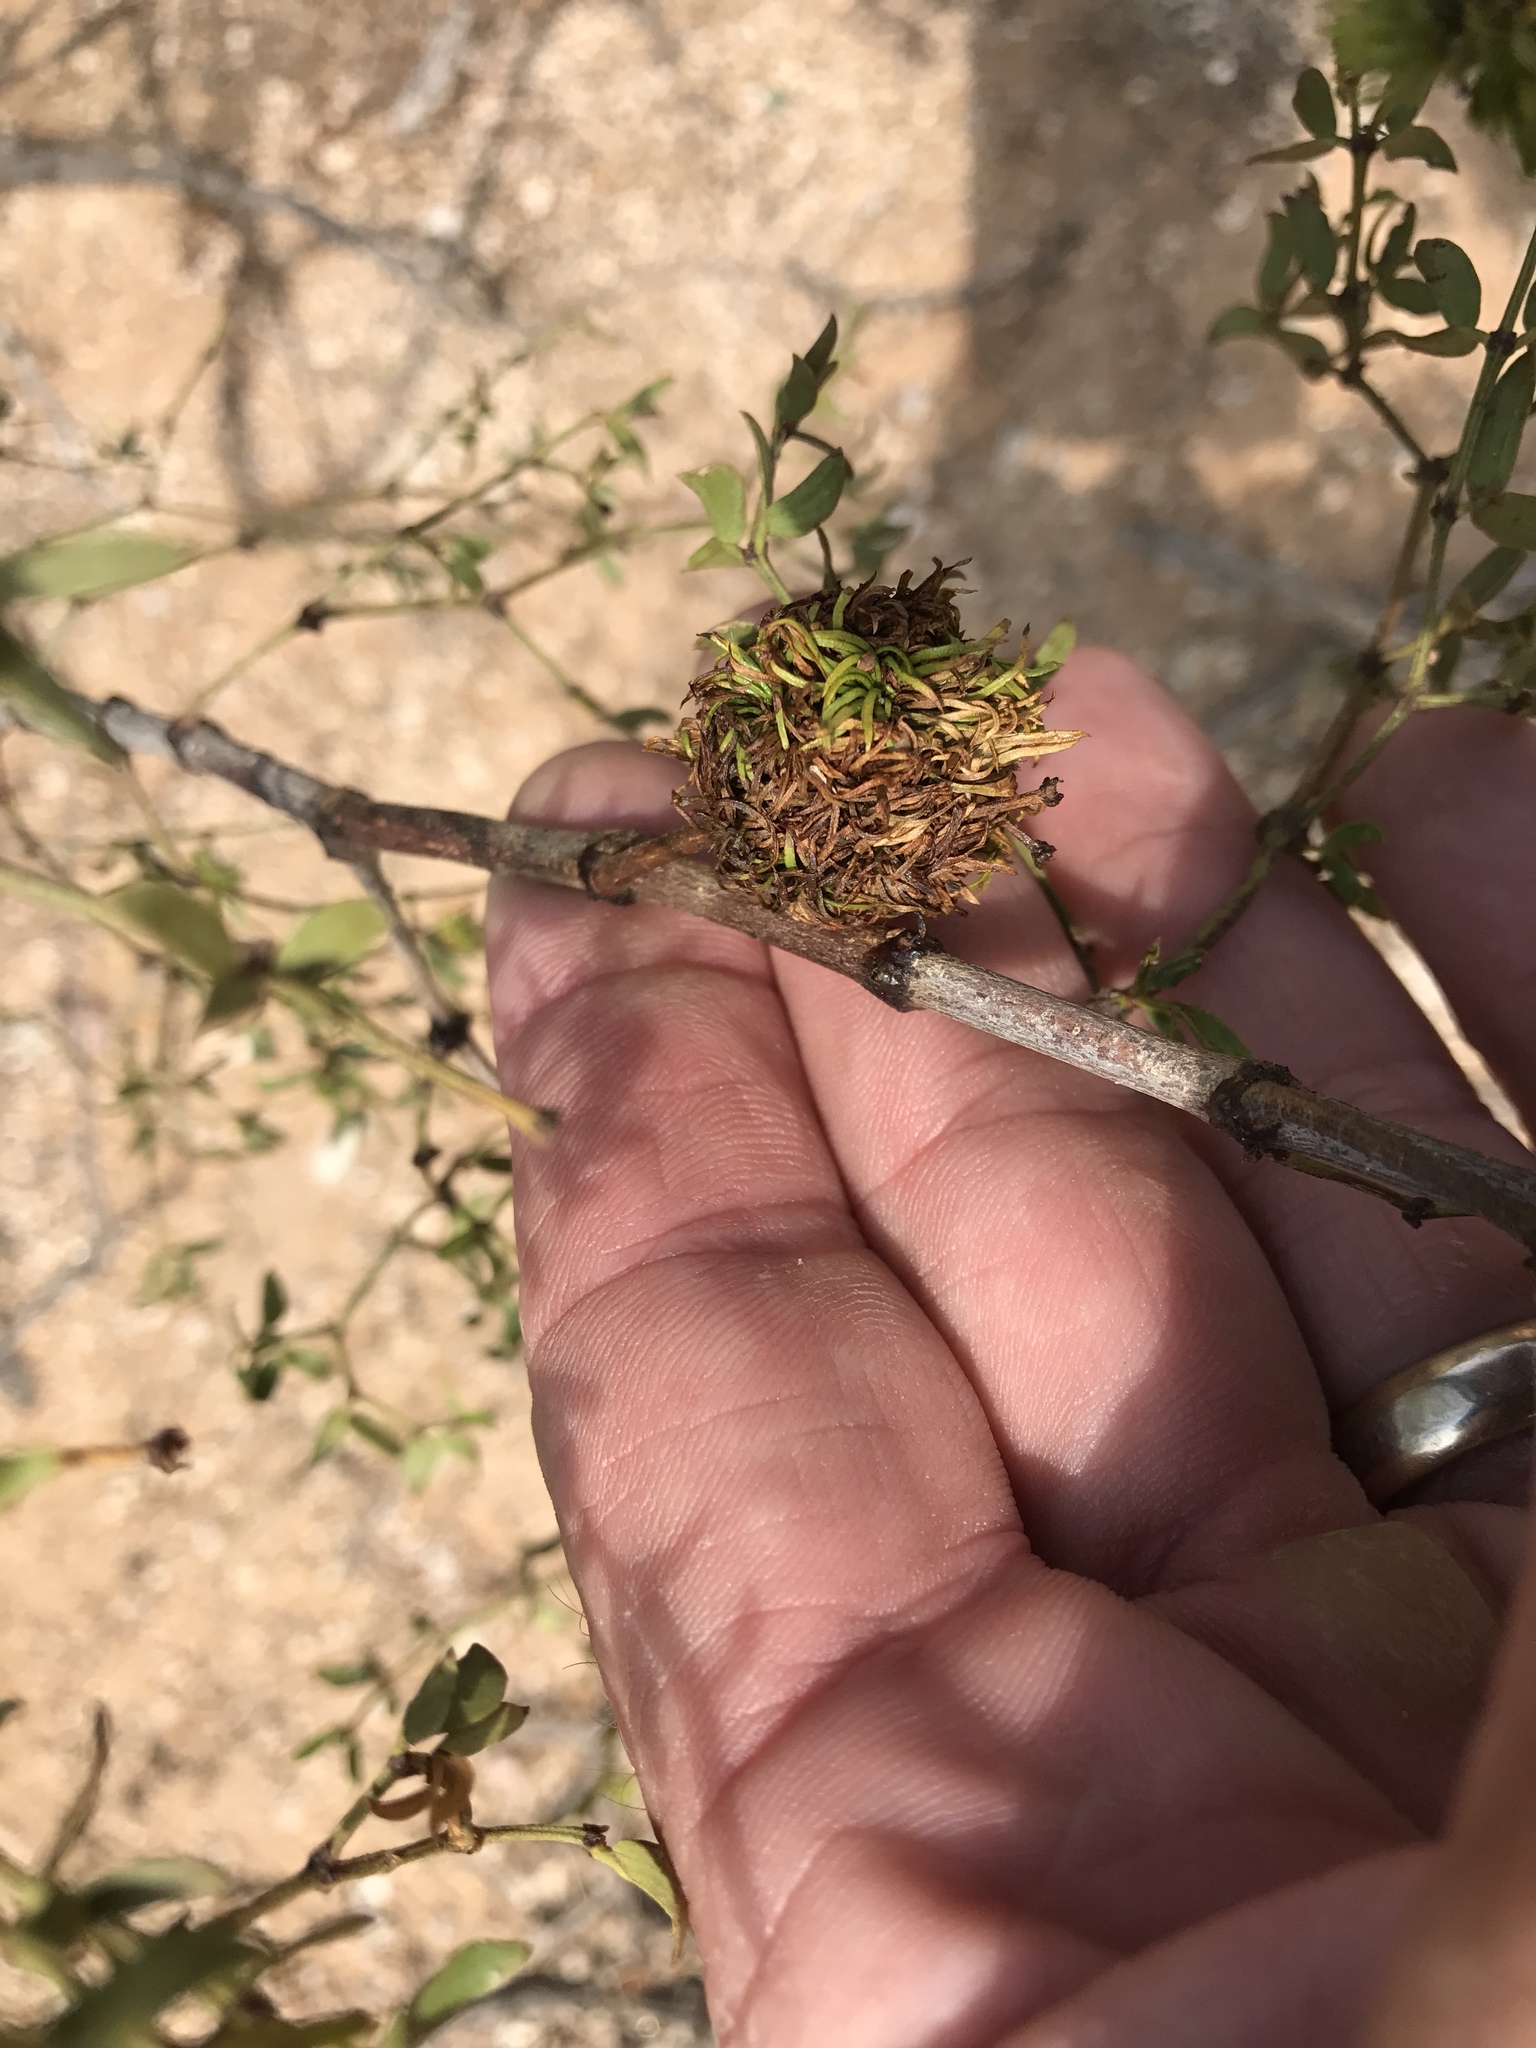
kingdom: Animalia
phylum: Arthropoda
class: Insecta
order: Diptera
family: Cecidomyiidae
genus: Asphondylia
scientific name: Asphondylia auripila
